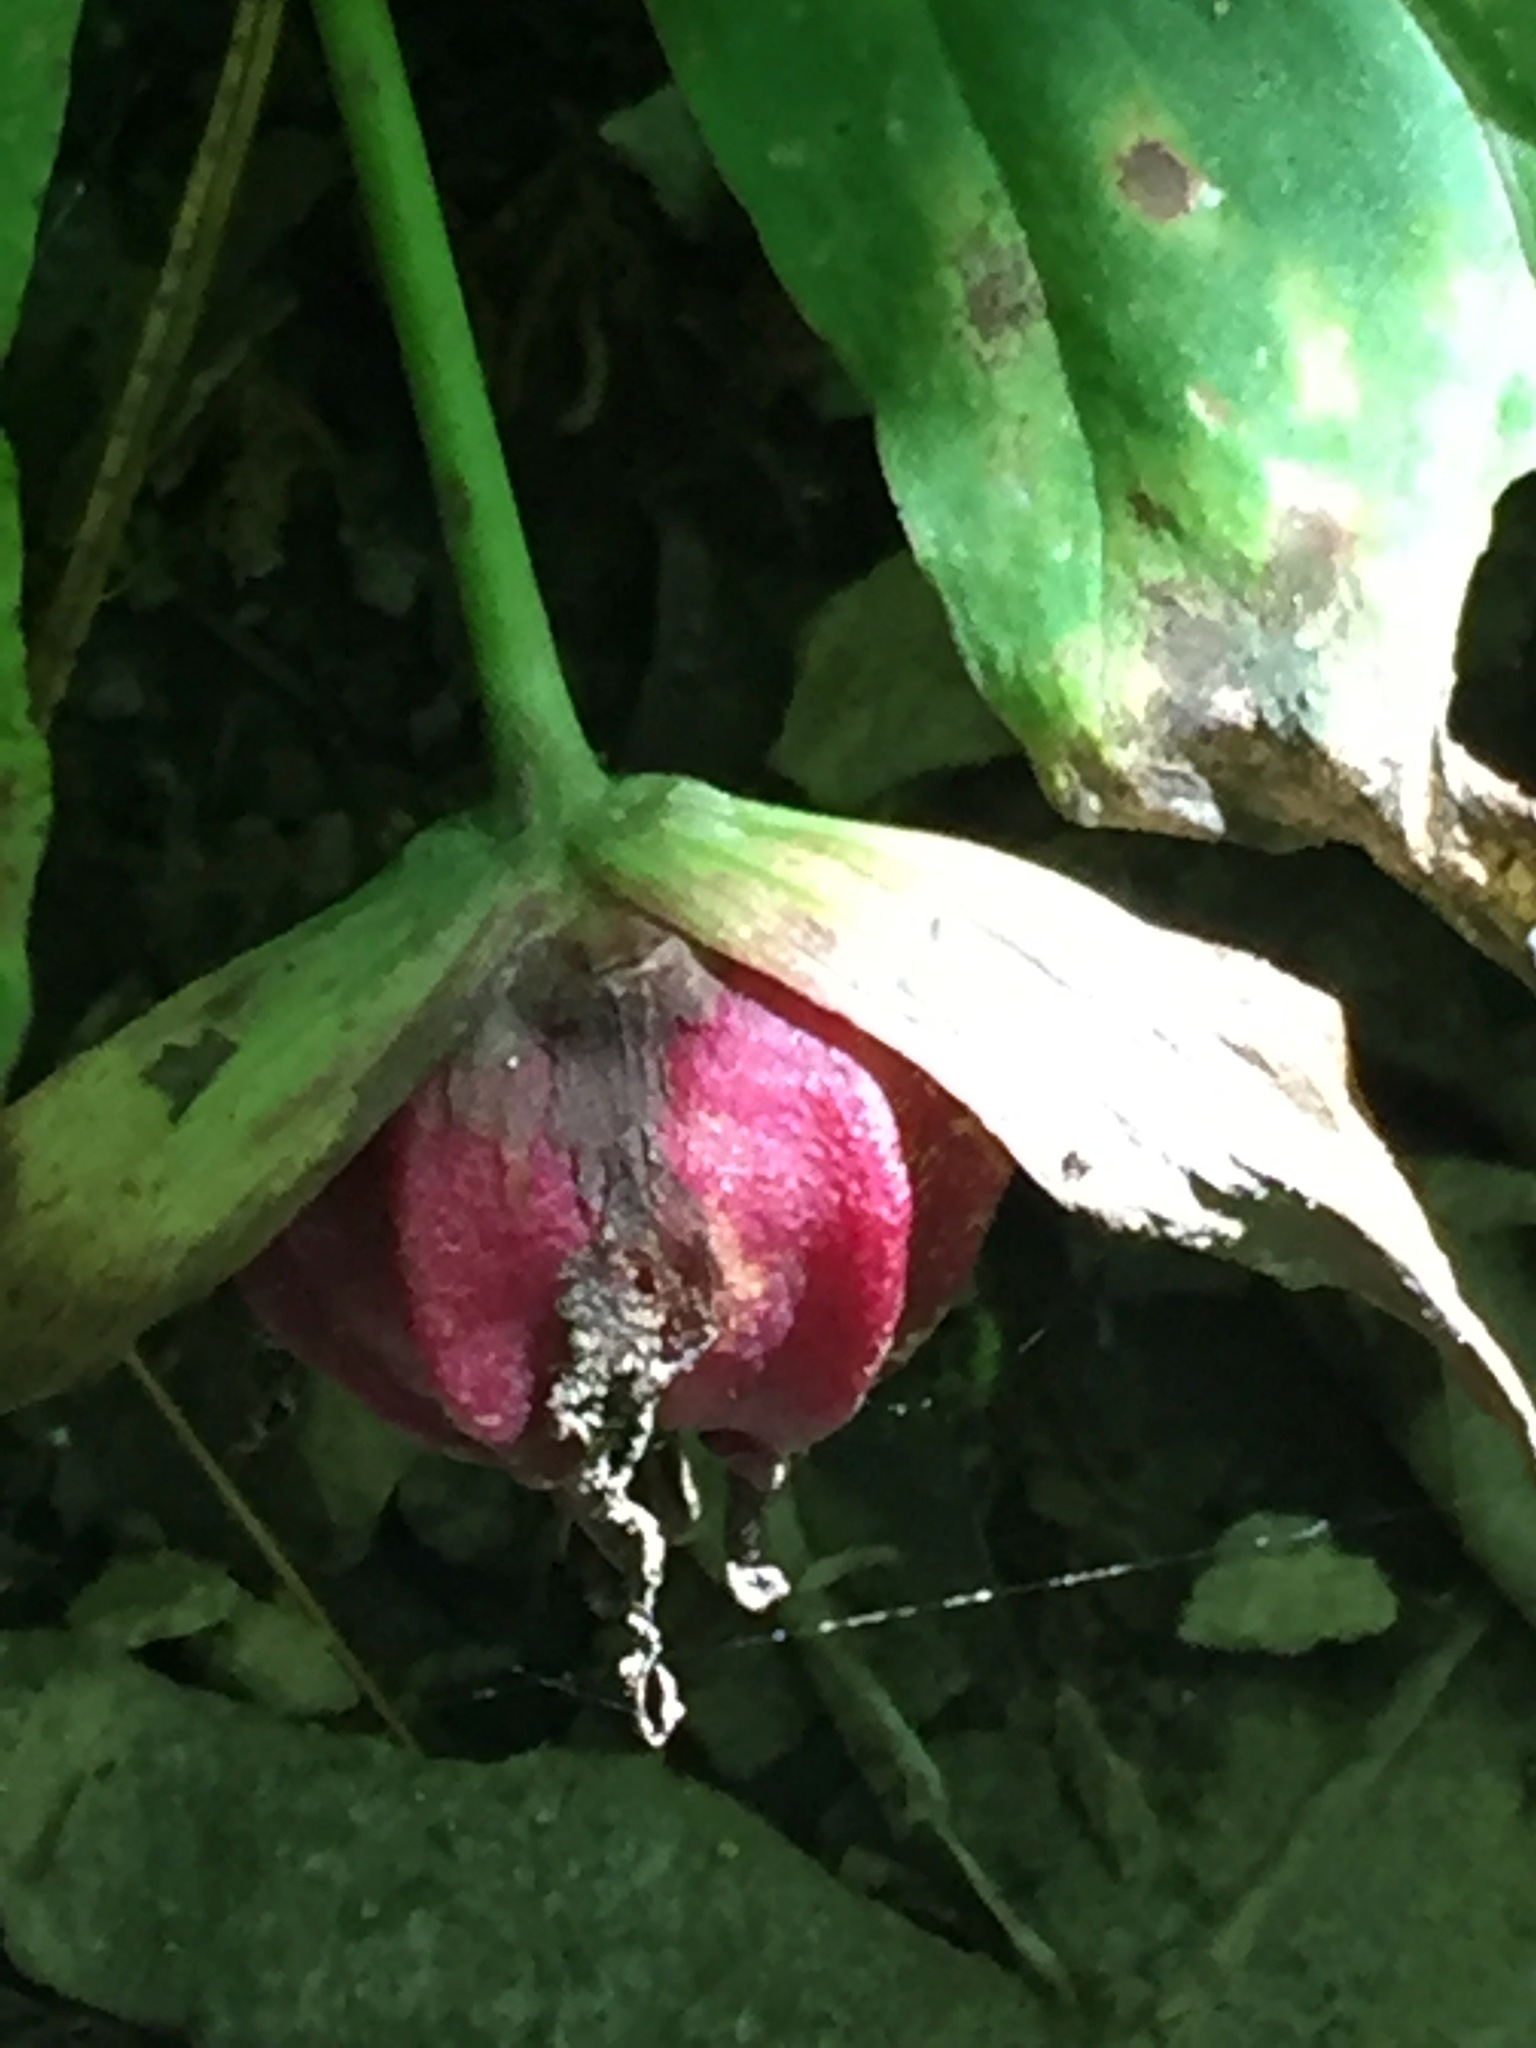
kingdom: Plantae
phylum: Tracheophyta
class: Liliopsida
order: Liliales
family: Melanthiaceae
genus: Trillium
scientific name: Trillium erectum
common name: Purple trillium
